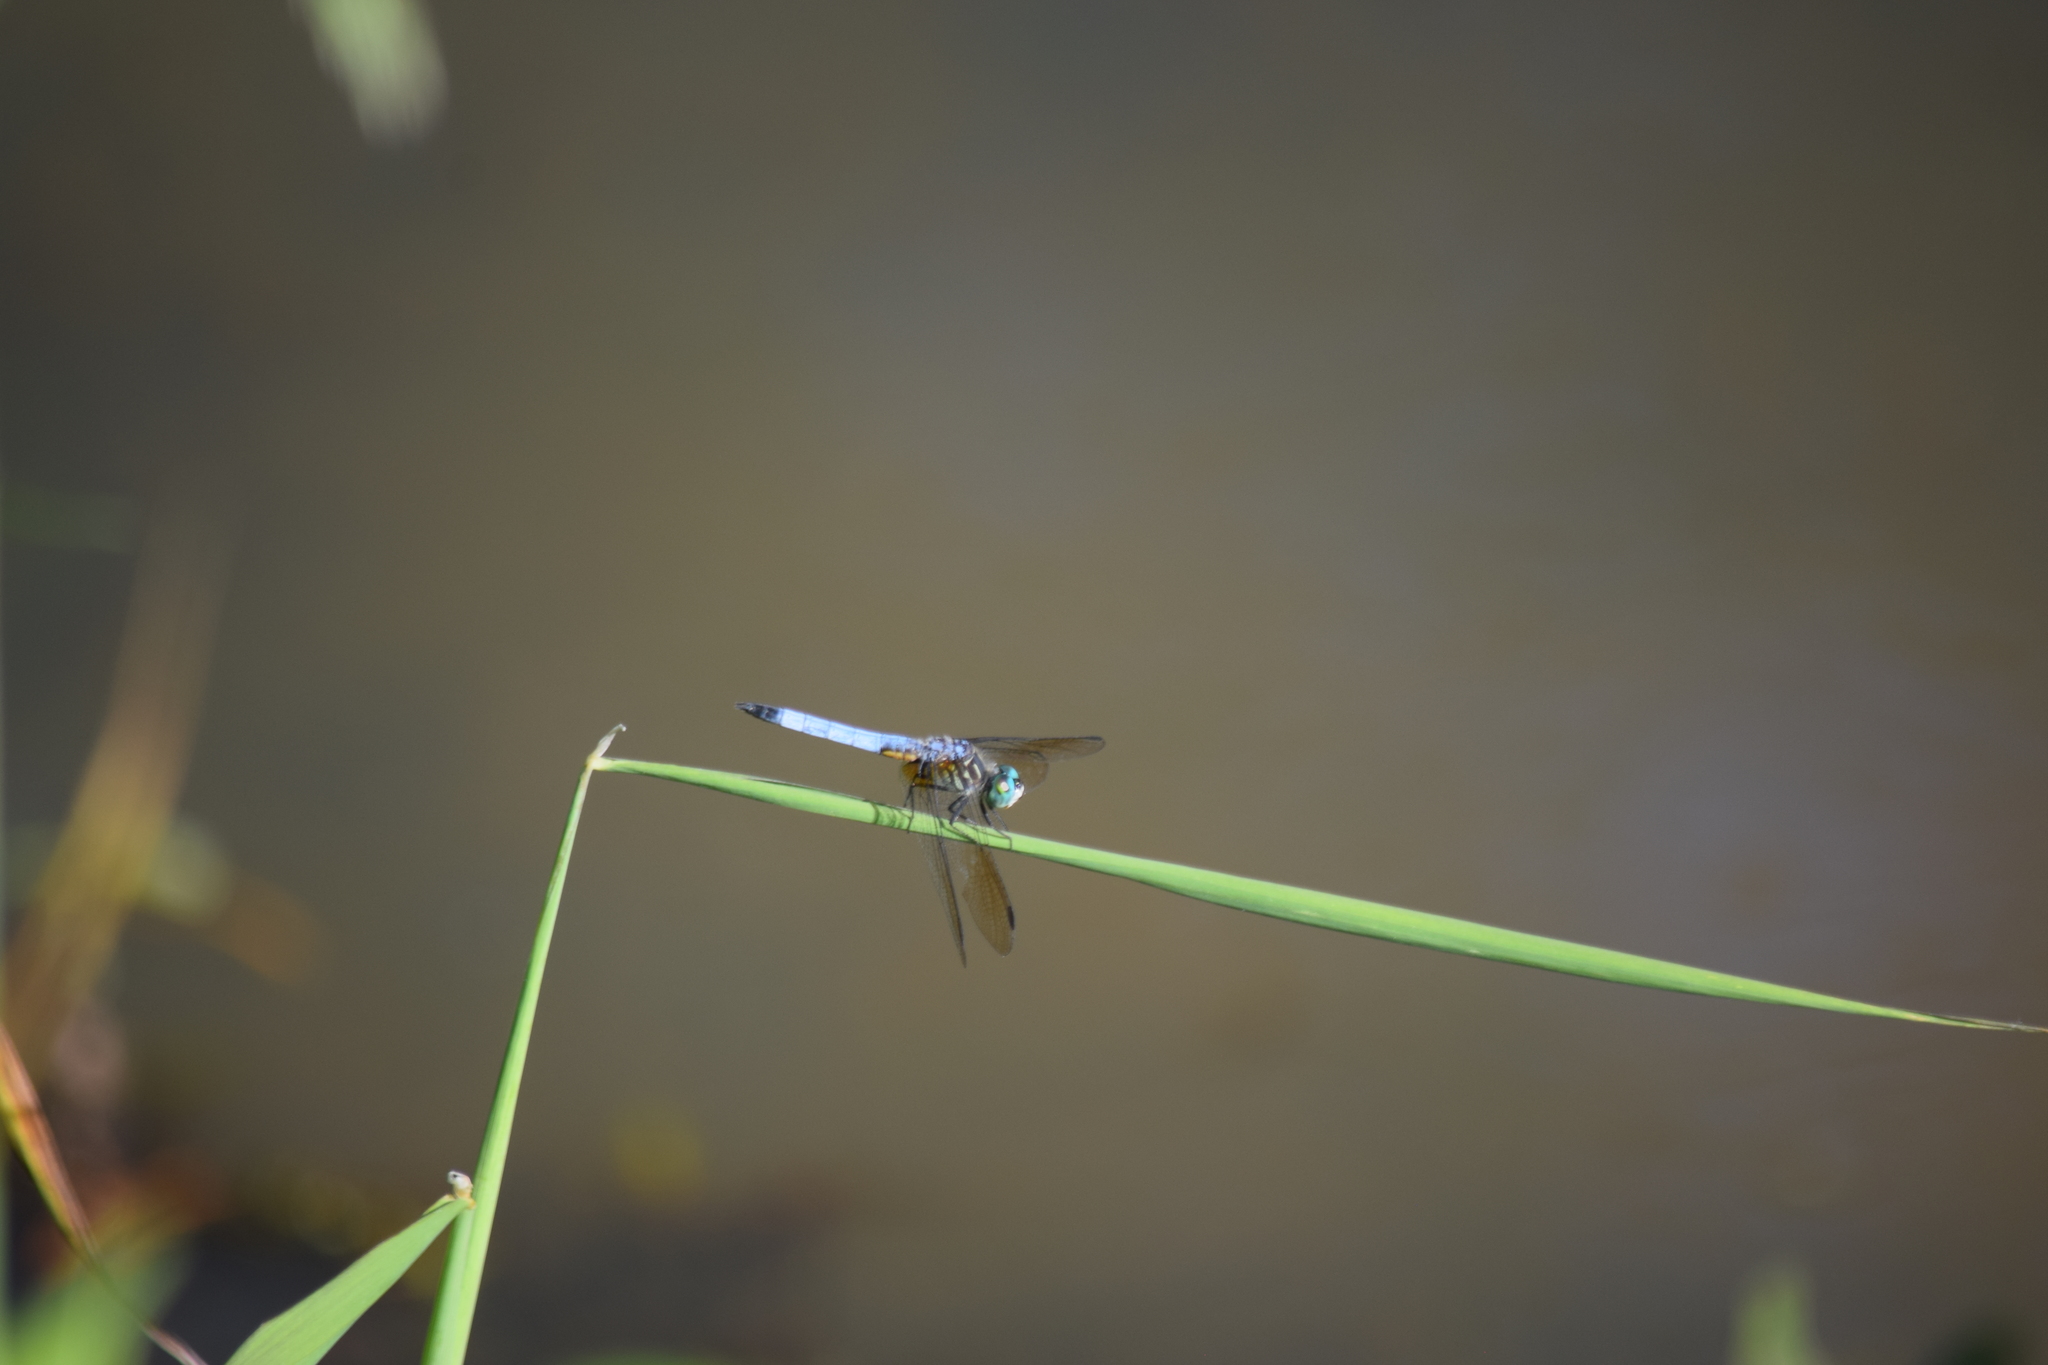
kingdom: Animalia
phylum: Arthropoda
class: Insecta
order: Odonata
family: Libellulidae
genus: Pachydiplax
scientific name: Pachydiplax longipennis
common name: Blue dasher
